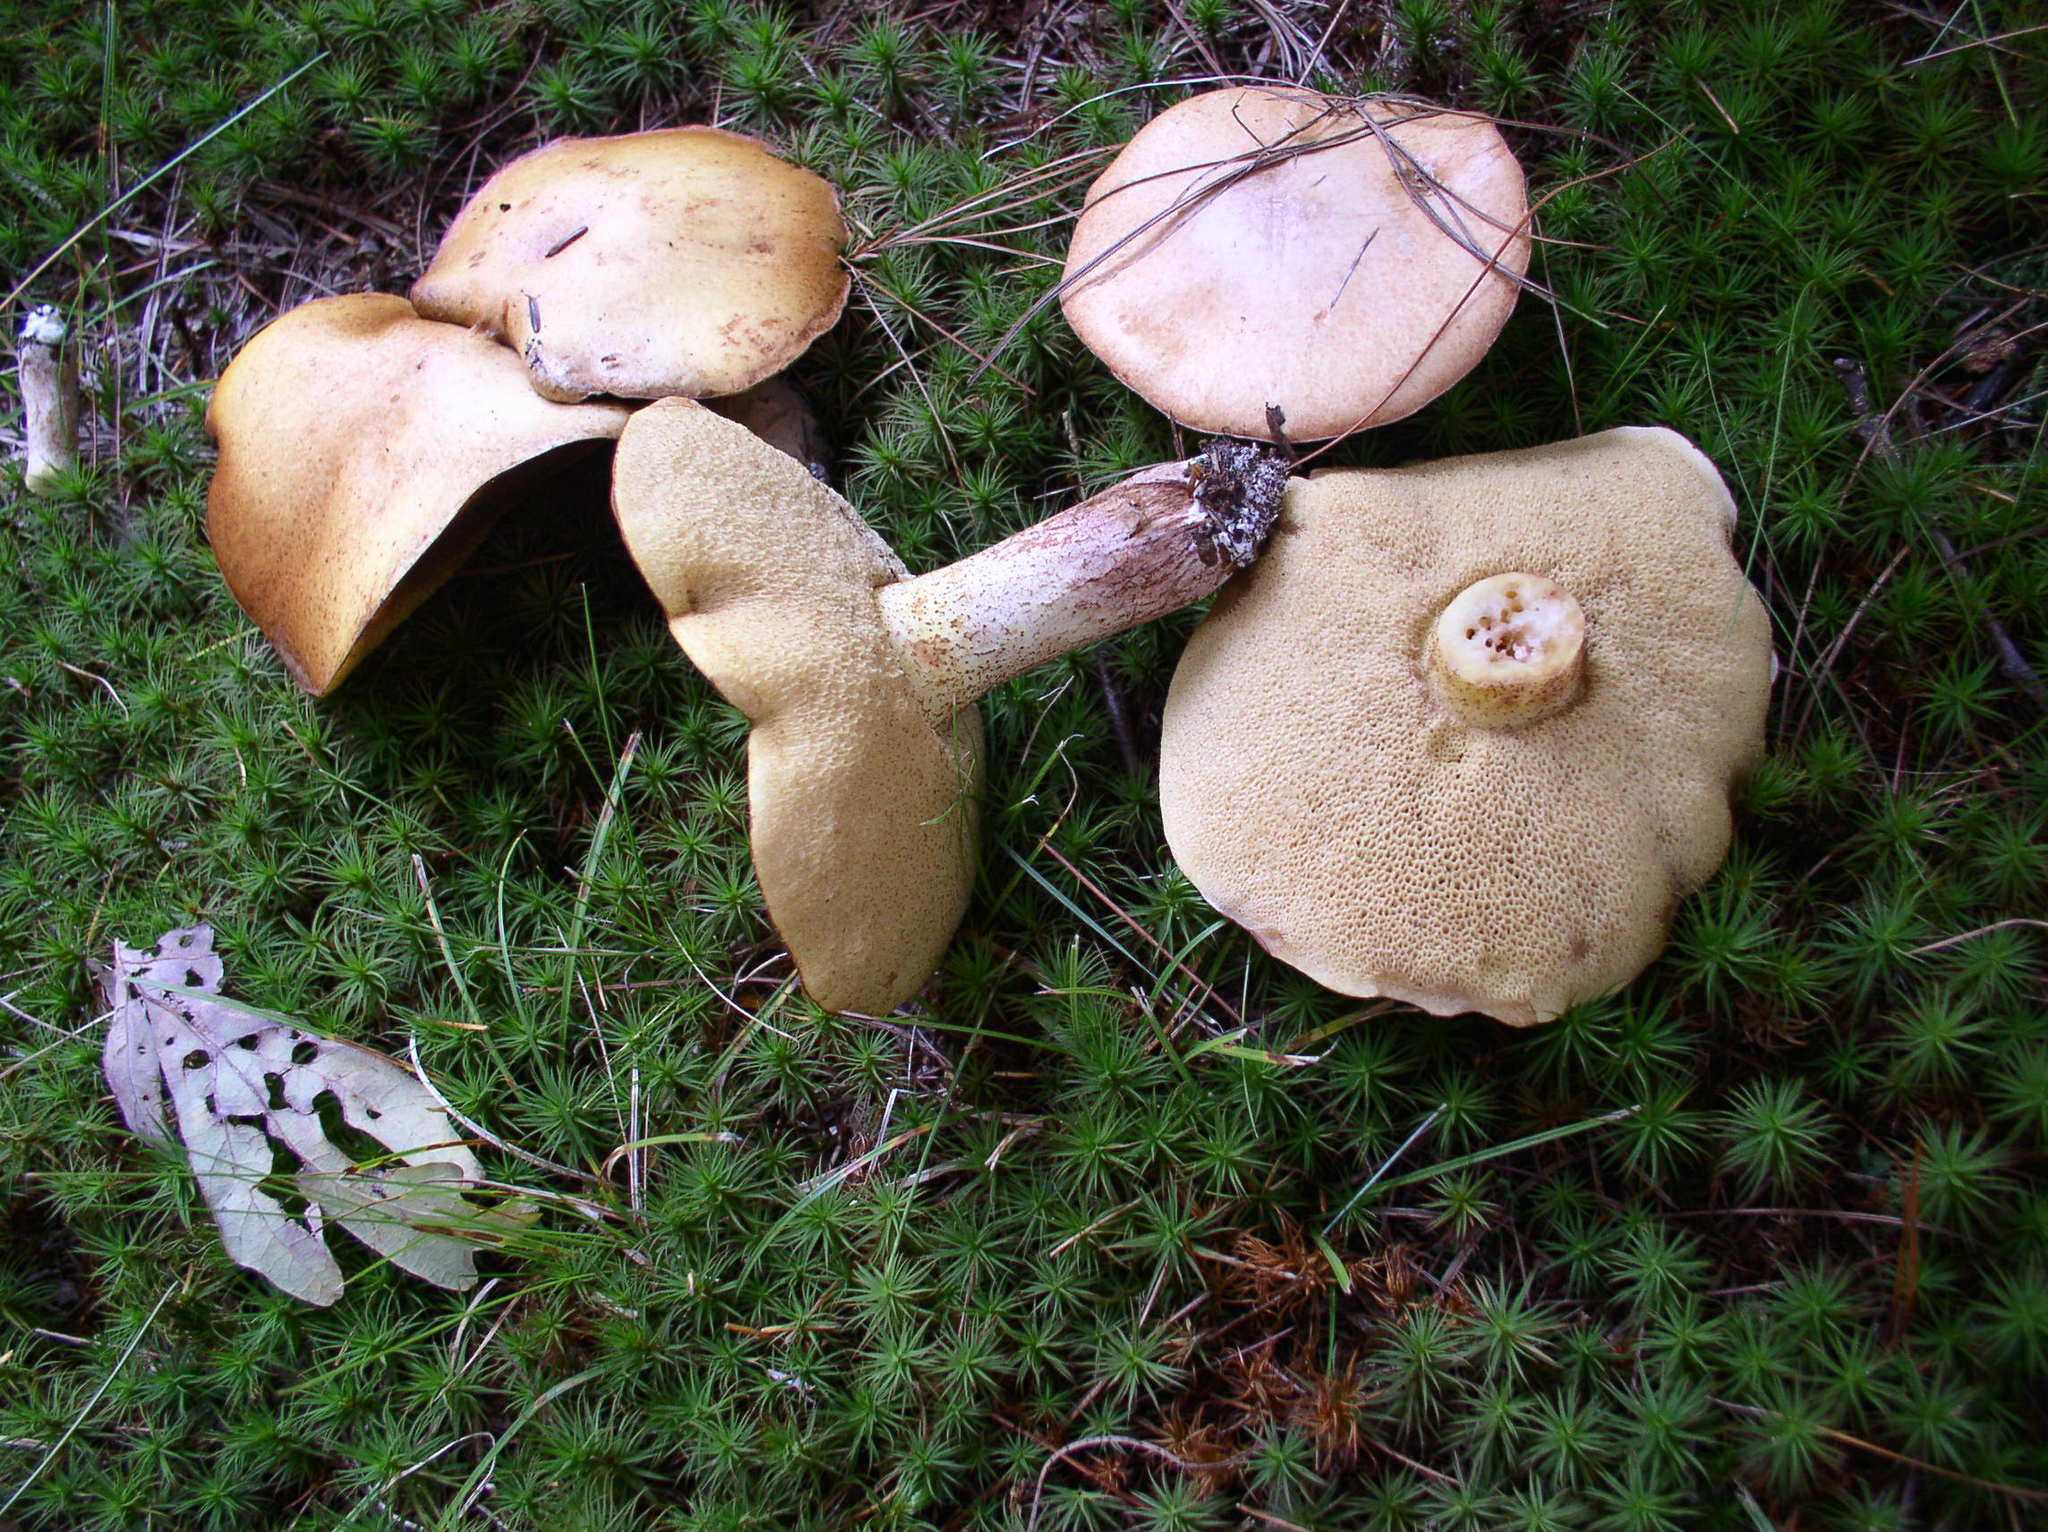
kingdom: Fungi
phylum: Basidiomycota
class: Agaricomycetes
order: Boletales
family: Suillaceae
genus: Suillus
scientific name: Suillus granulatus
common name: Weeping bolete
